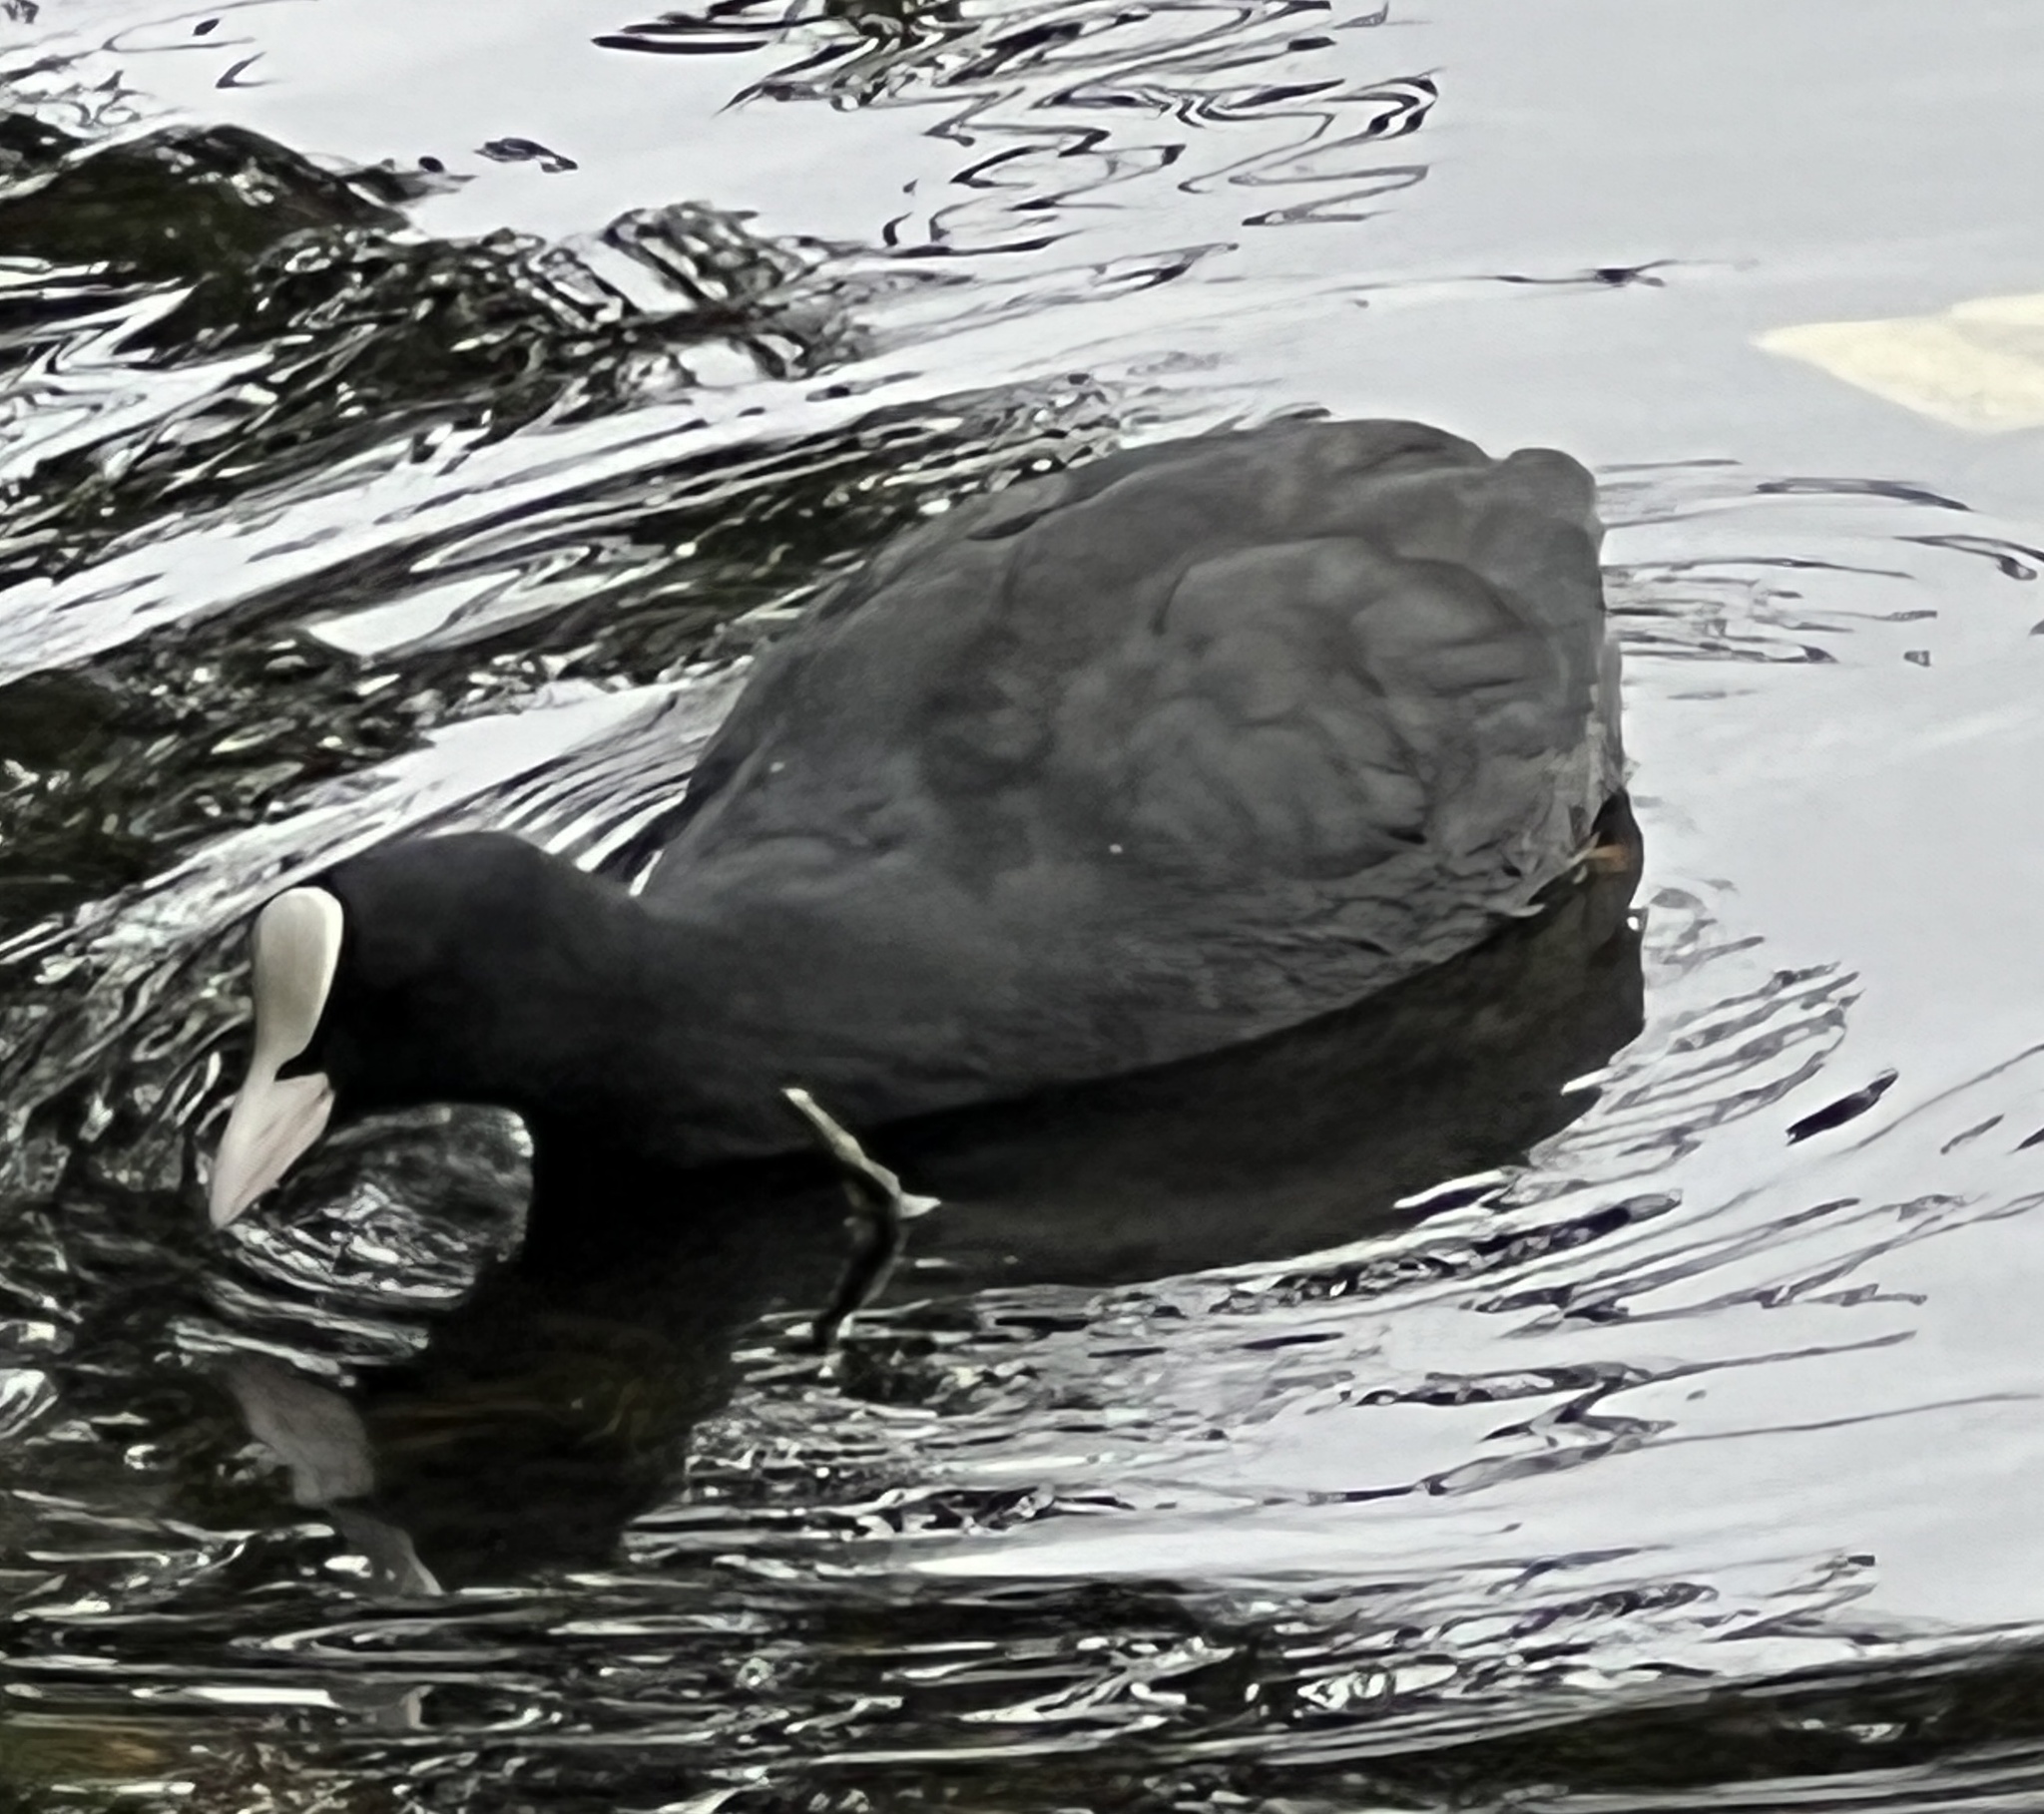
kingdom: Animalia
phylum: Chordata
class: Aves
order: Gruiformes
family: Rallidae
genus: Fulica
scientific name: Fulica atra
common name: Eurasian coot
